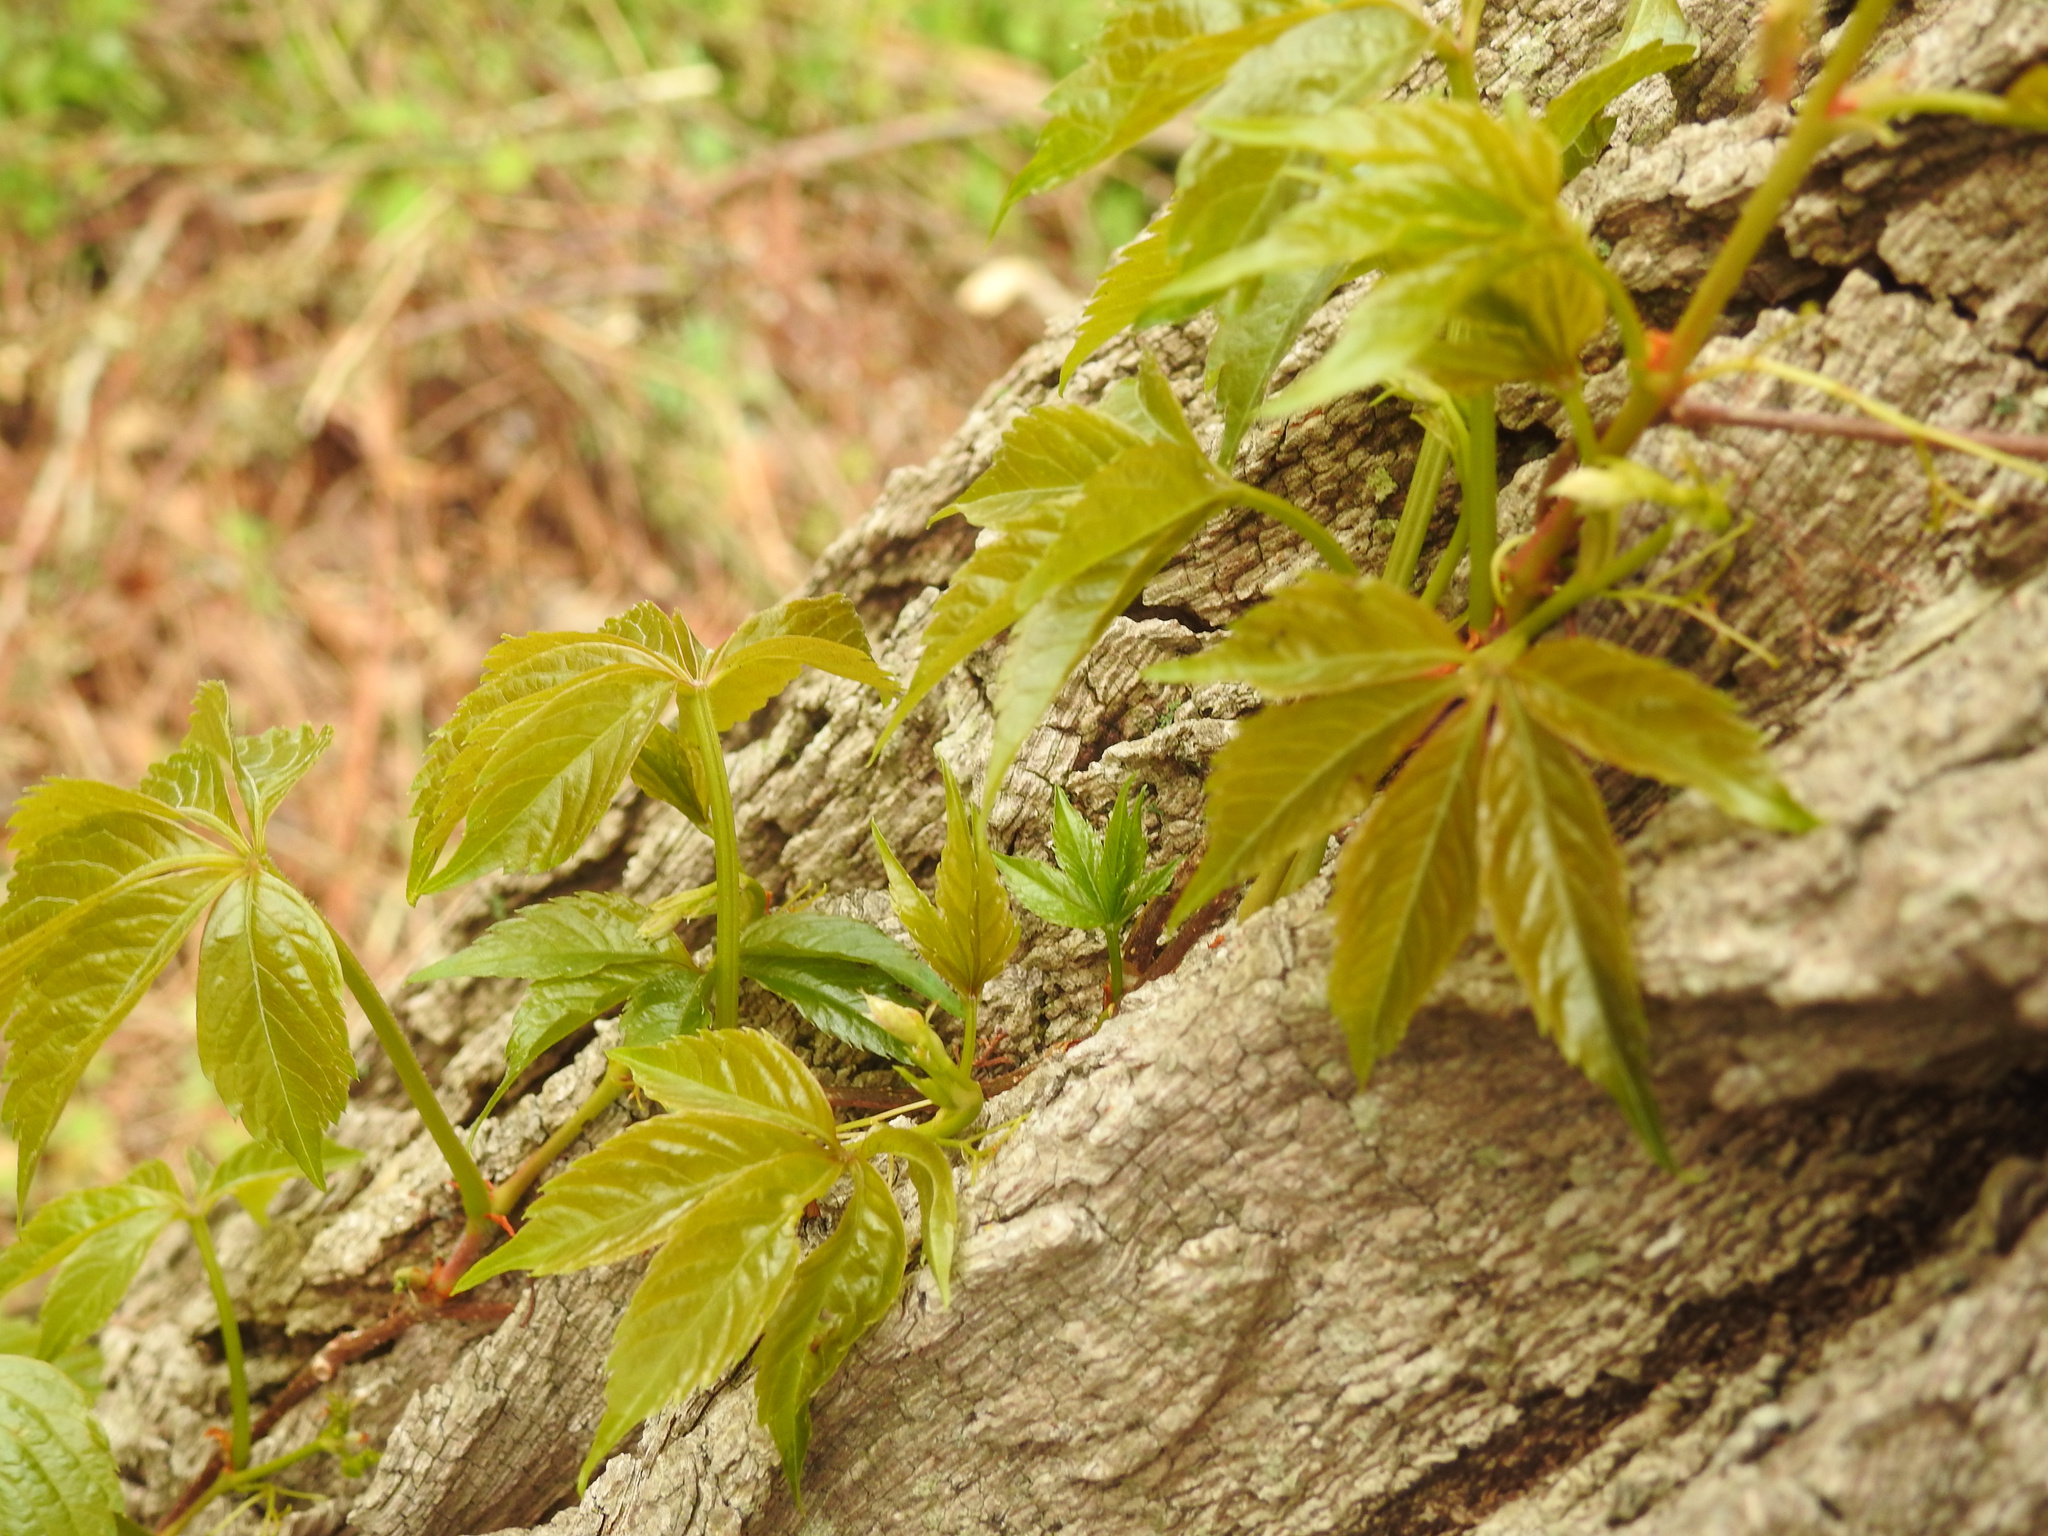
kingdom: Plantae
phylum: Tracheophyta
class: Magnoliopsida
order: Vitales
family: Vitaceae
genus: Parthenocissus
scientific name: Parthenocissus quinquefolia
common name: Virginia-creeper
